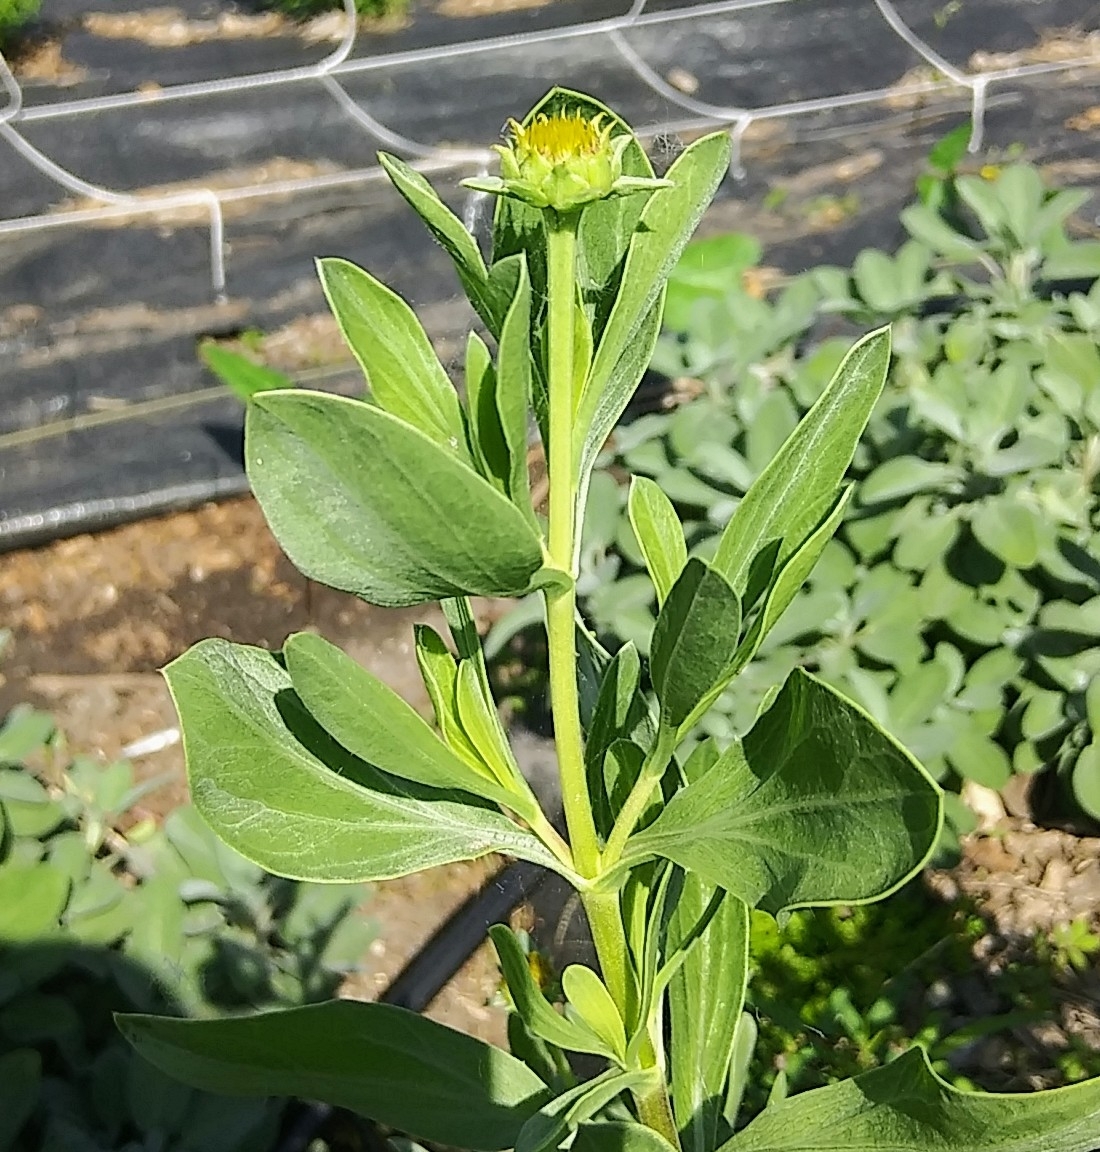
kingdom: Plantae
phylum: Tracheophyta
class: Magnoliopsida
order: Asterales
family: Asteraceae
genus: Borrichia
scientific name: Borrichia frutescens
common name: Sea oxeye
